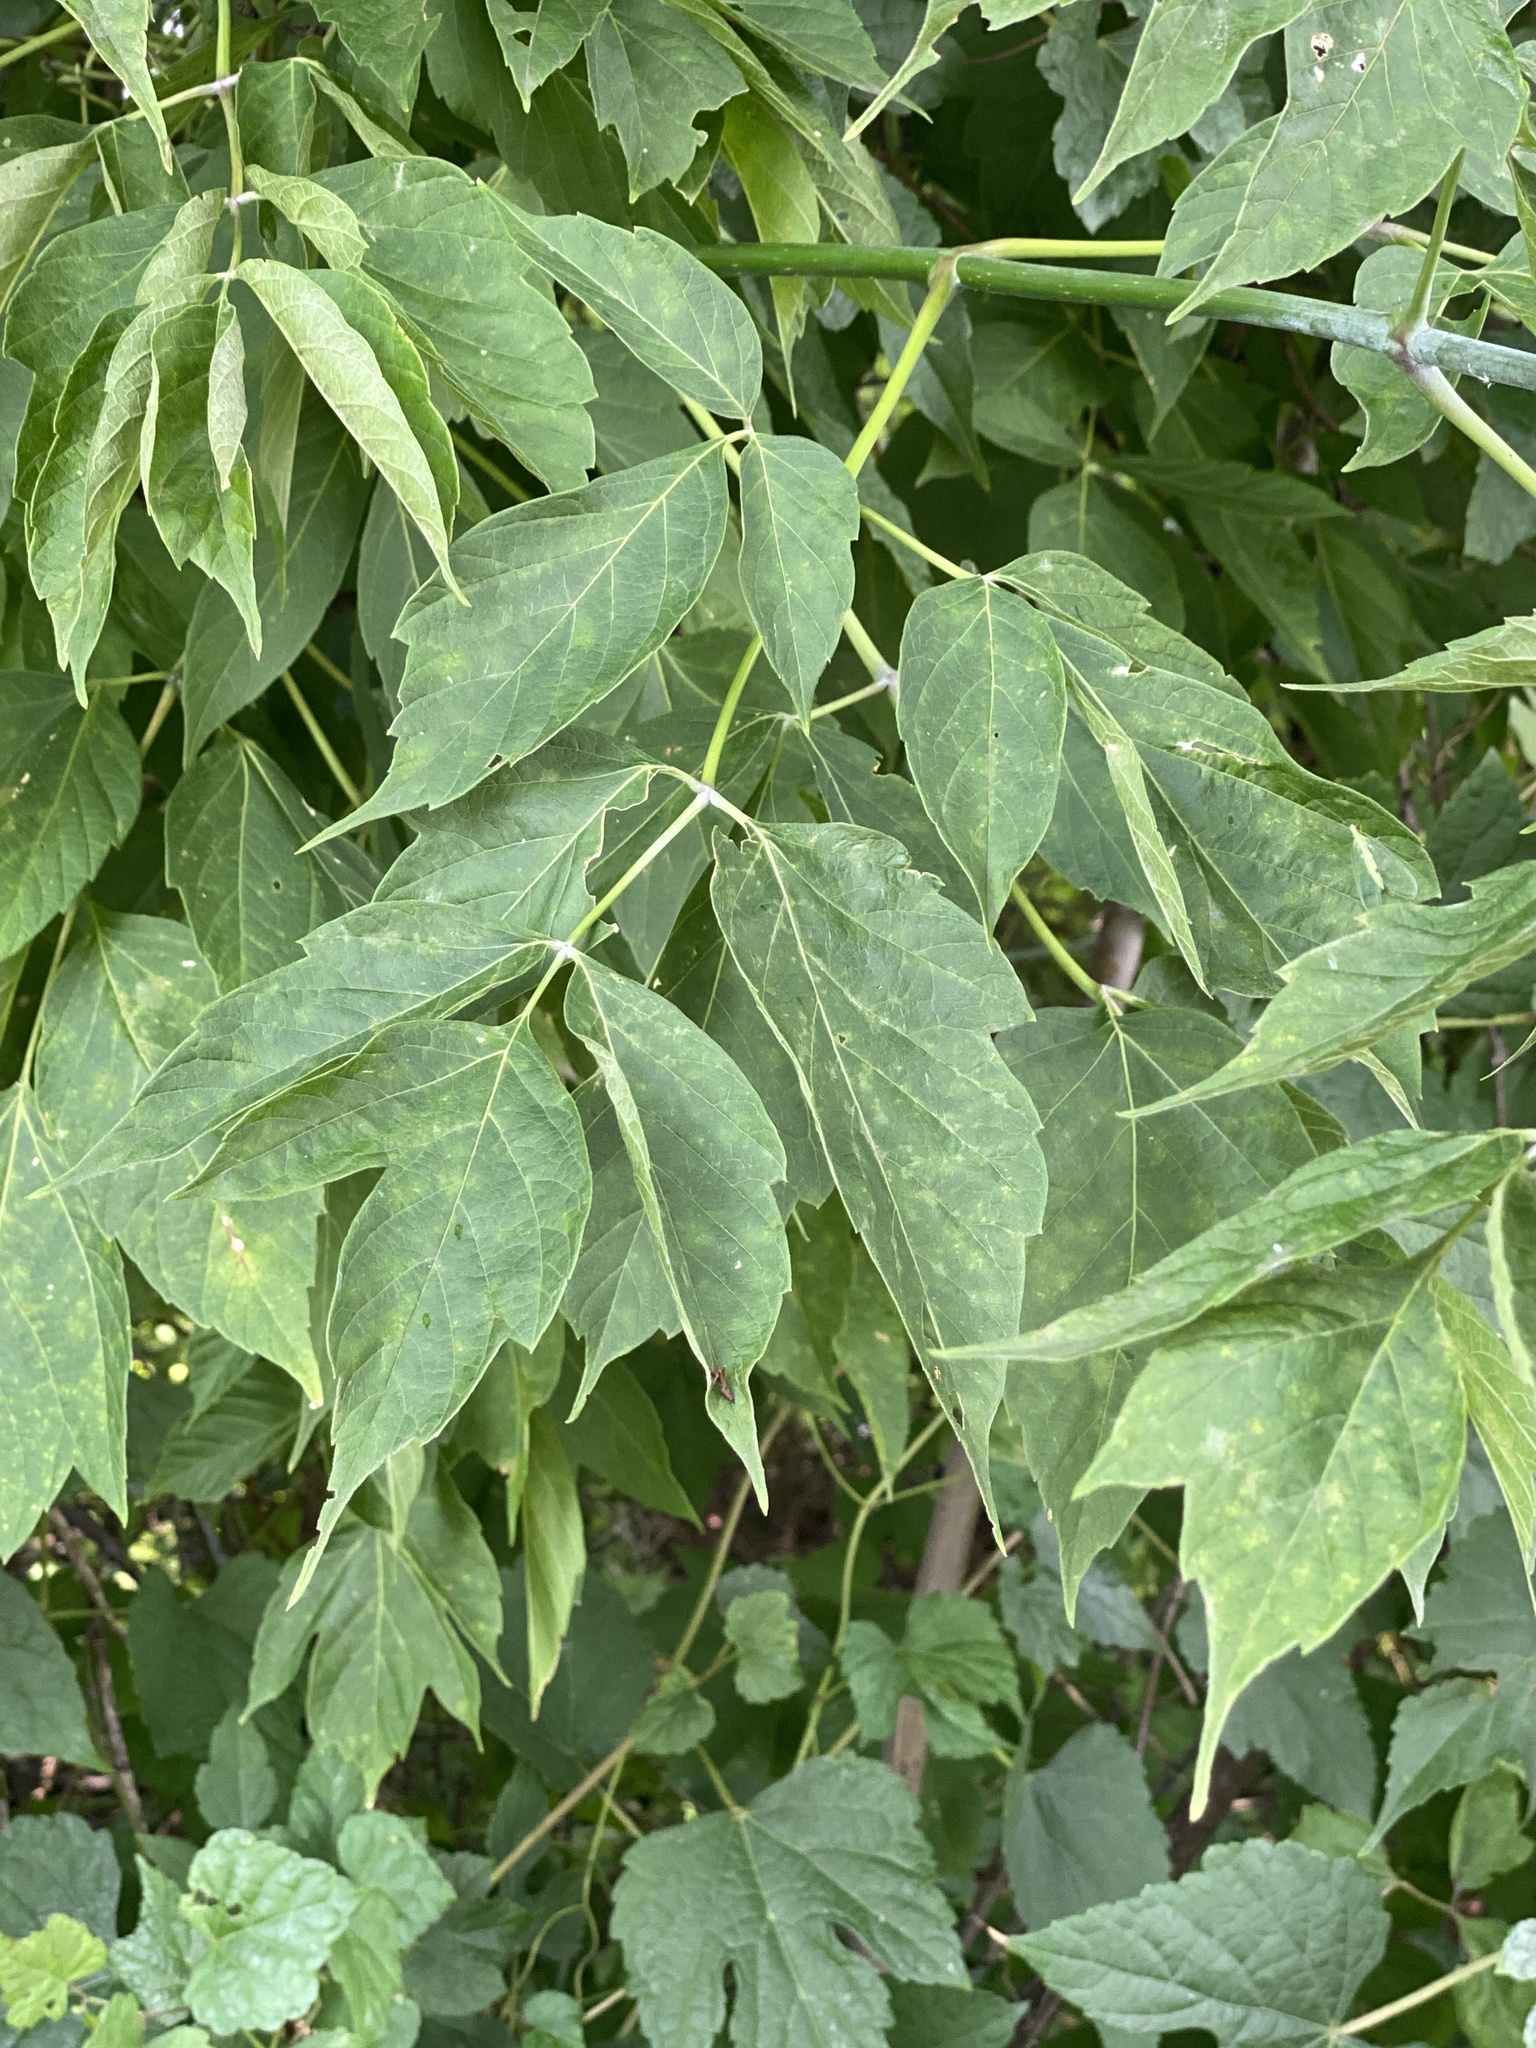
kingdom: Plantae
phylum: Tracheophyta
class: Magnoliopsida
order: Sapindales
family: Sapindaceae
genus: Acer
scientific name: Acer negundo
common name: Ashleaf maple
